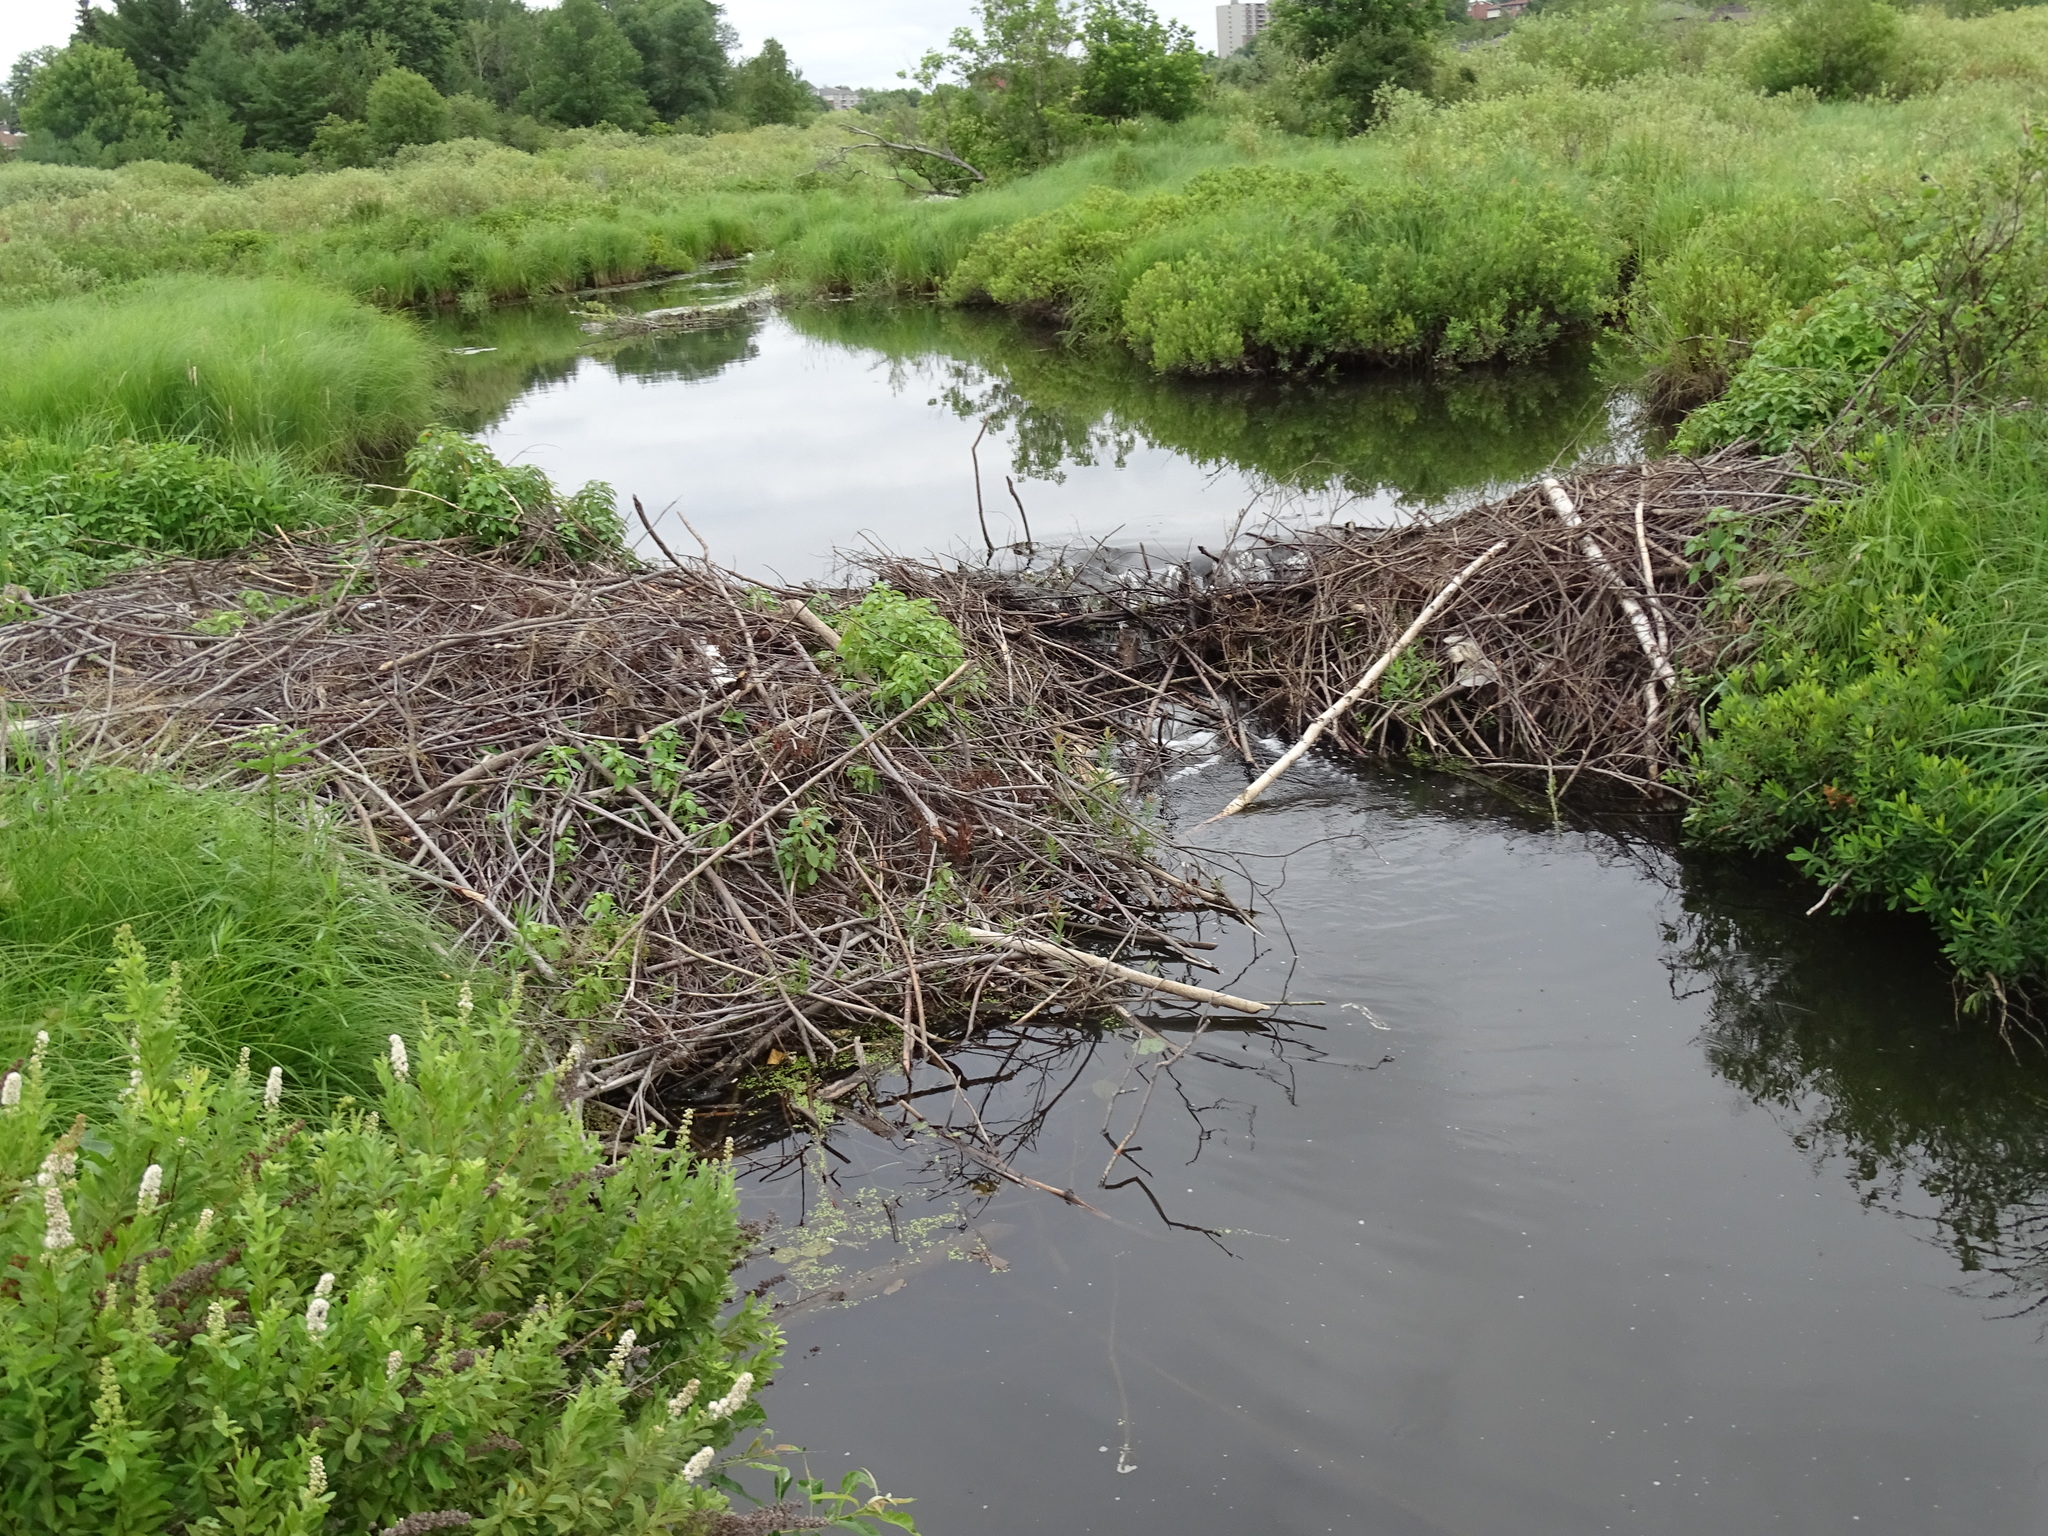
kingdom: Animalia
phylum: Chordata
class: Mammalia
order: Rodentia
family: Castoridae
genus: Castor
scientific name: Castor canadensis
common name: American beaver
